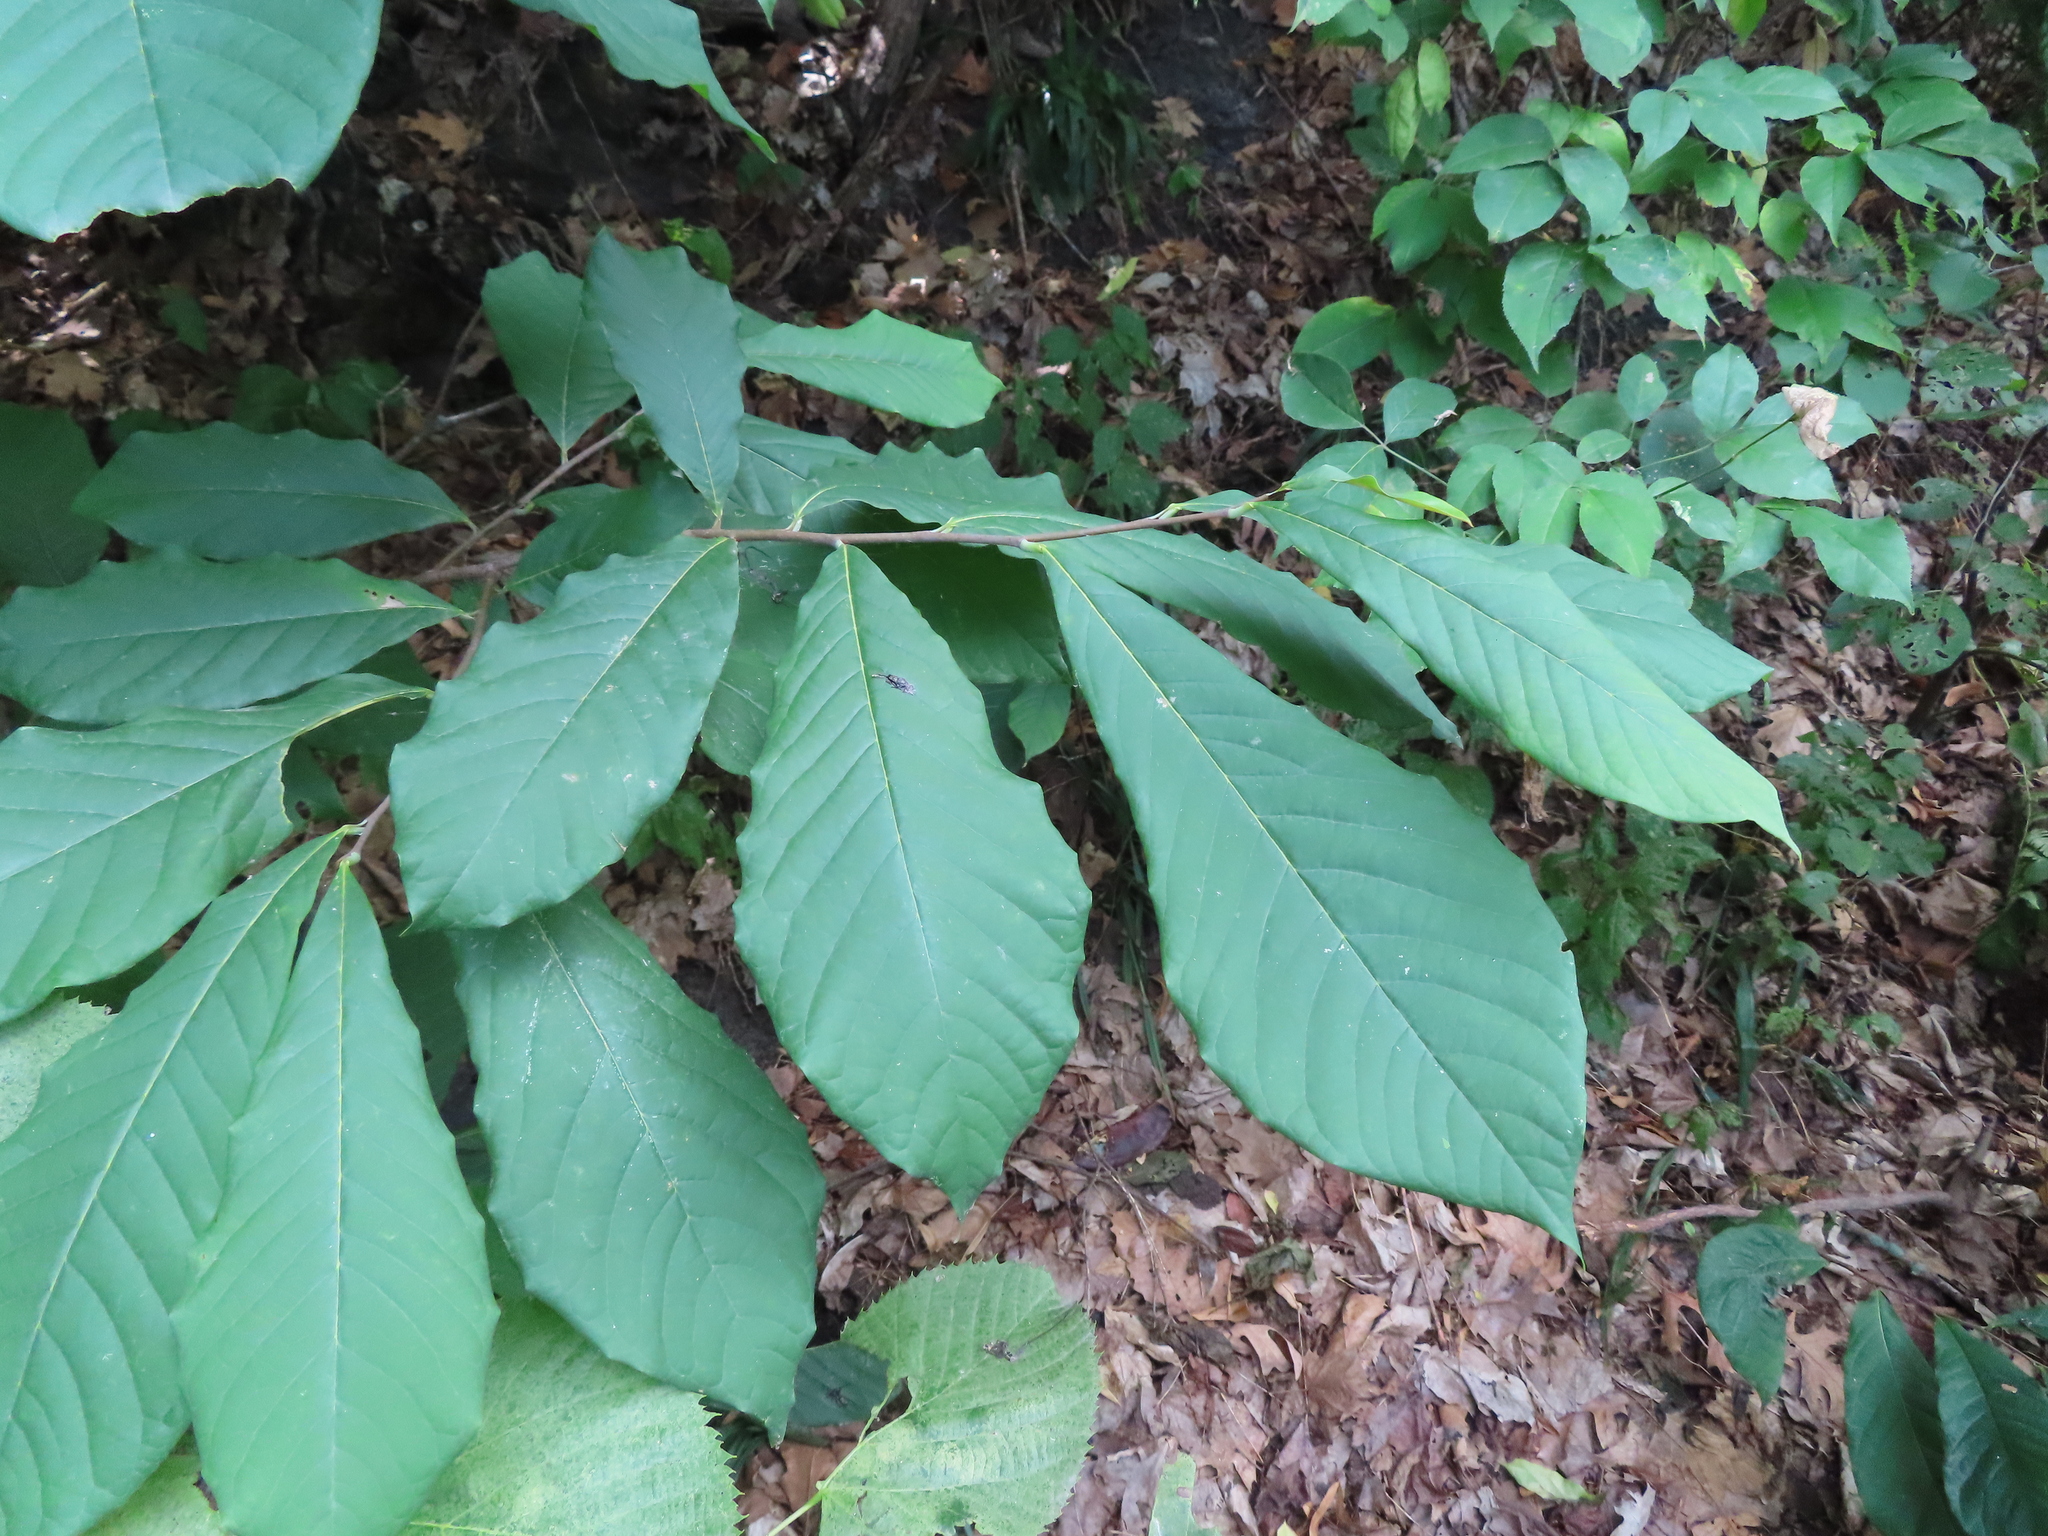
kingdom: Plantae
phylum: Tracheophyta
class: Magnoliopsida
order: Magnoliales
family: Annonaceae
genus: Asimina
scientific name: Asimina triloba
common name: Dog-banana
